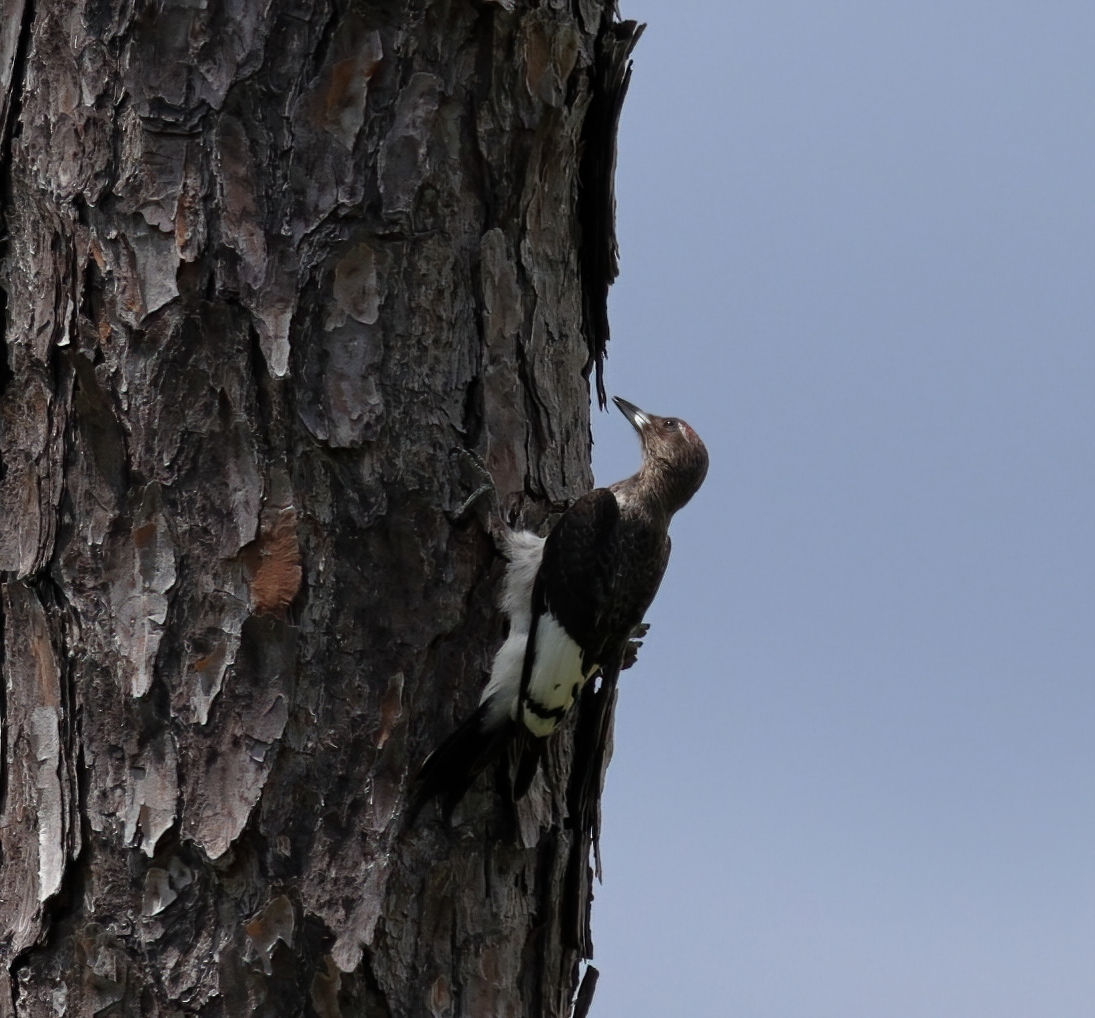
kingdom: Animalia
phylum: Chordata
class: Aves
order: Piciformes
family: Picidae
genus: Melanerpes
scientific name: Melanerpes erythrocephalus
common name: Red-headed woodpecker
